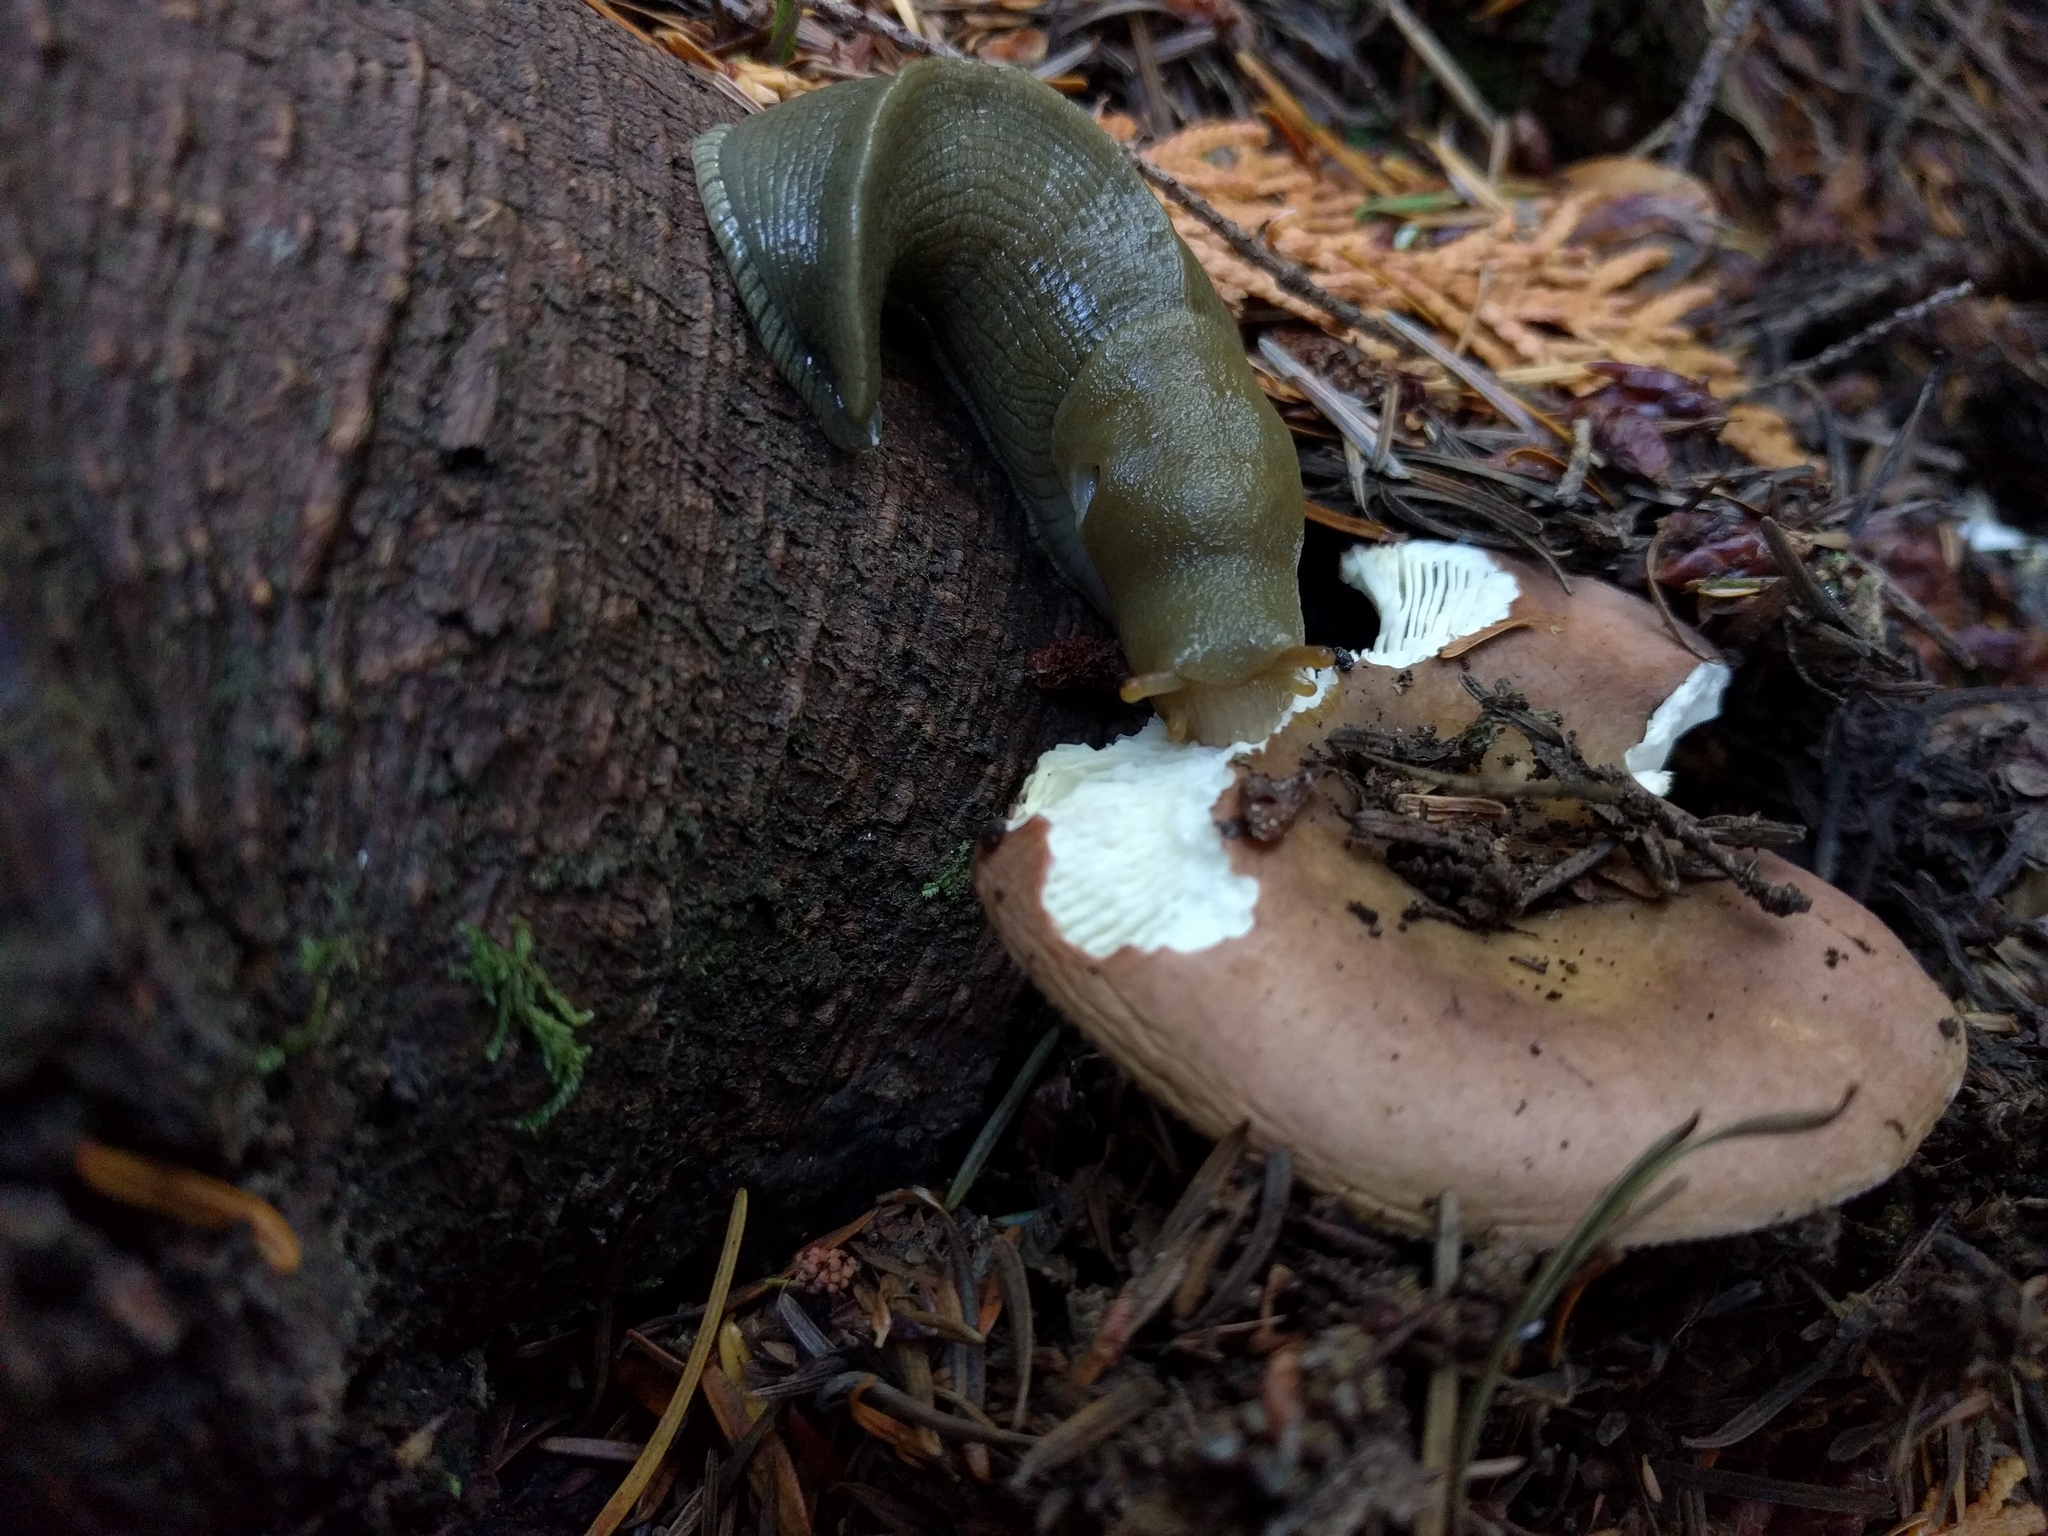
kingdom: Animalia
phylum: Mollusca
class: Gastropoda
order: Stylommatophora
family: Ariolimacidae
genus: Ariolimax
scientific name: Ariolimax columbianus
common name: Pacific banana slug
